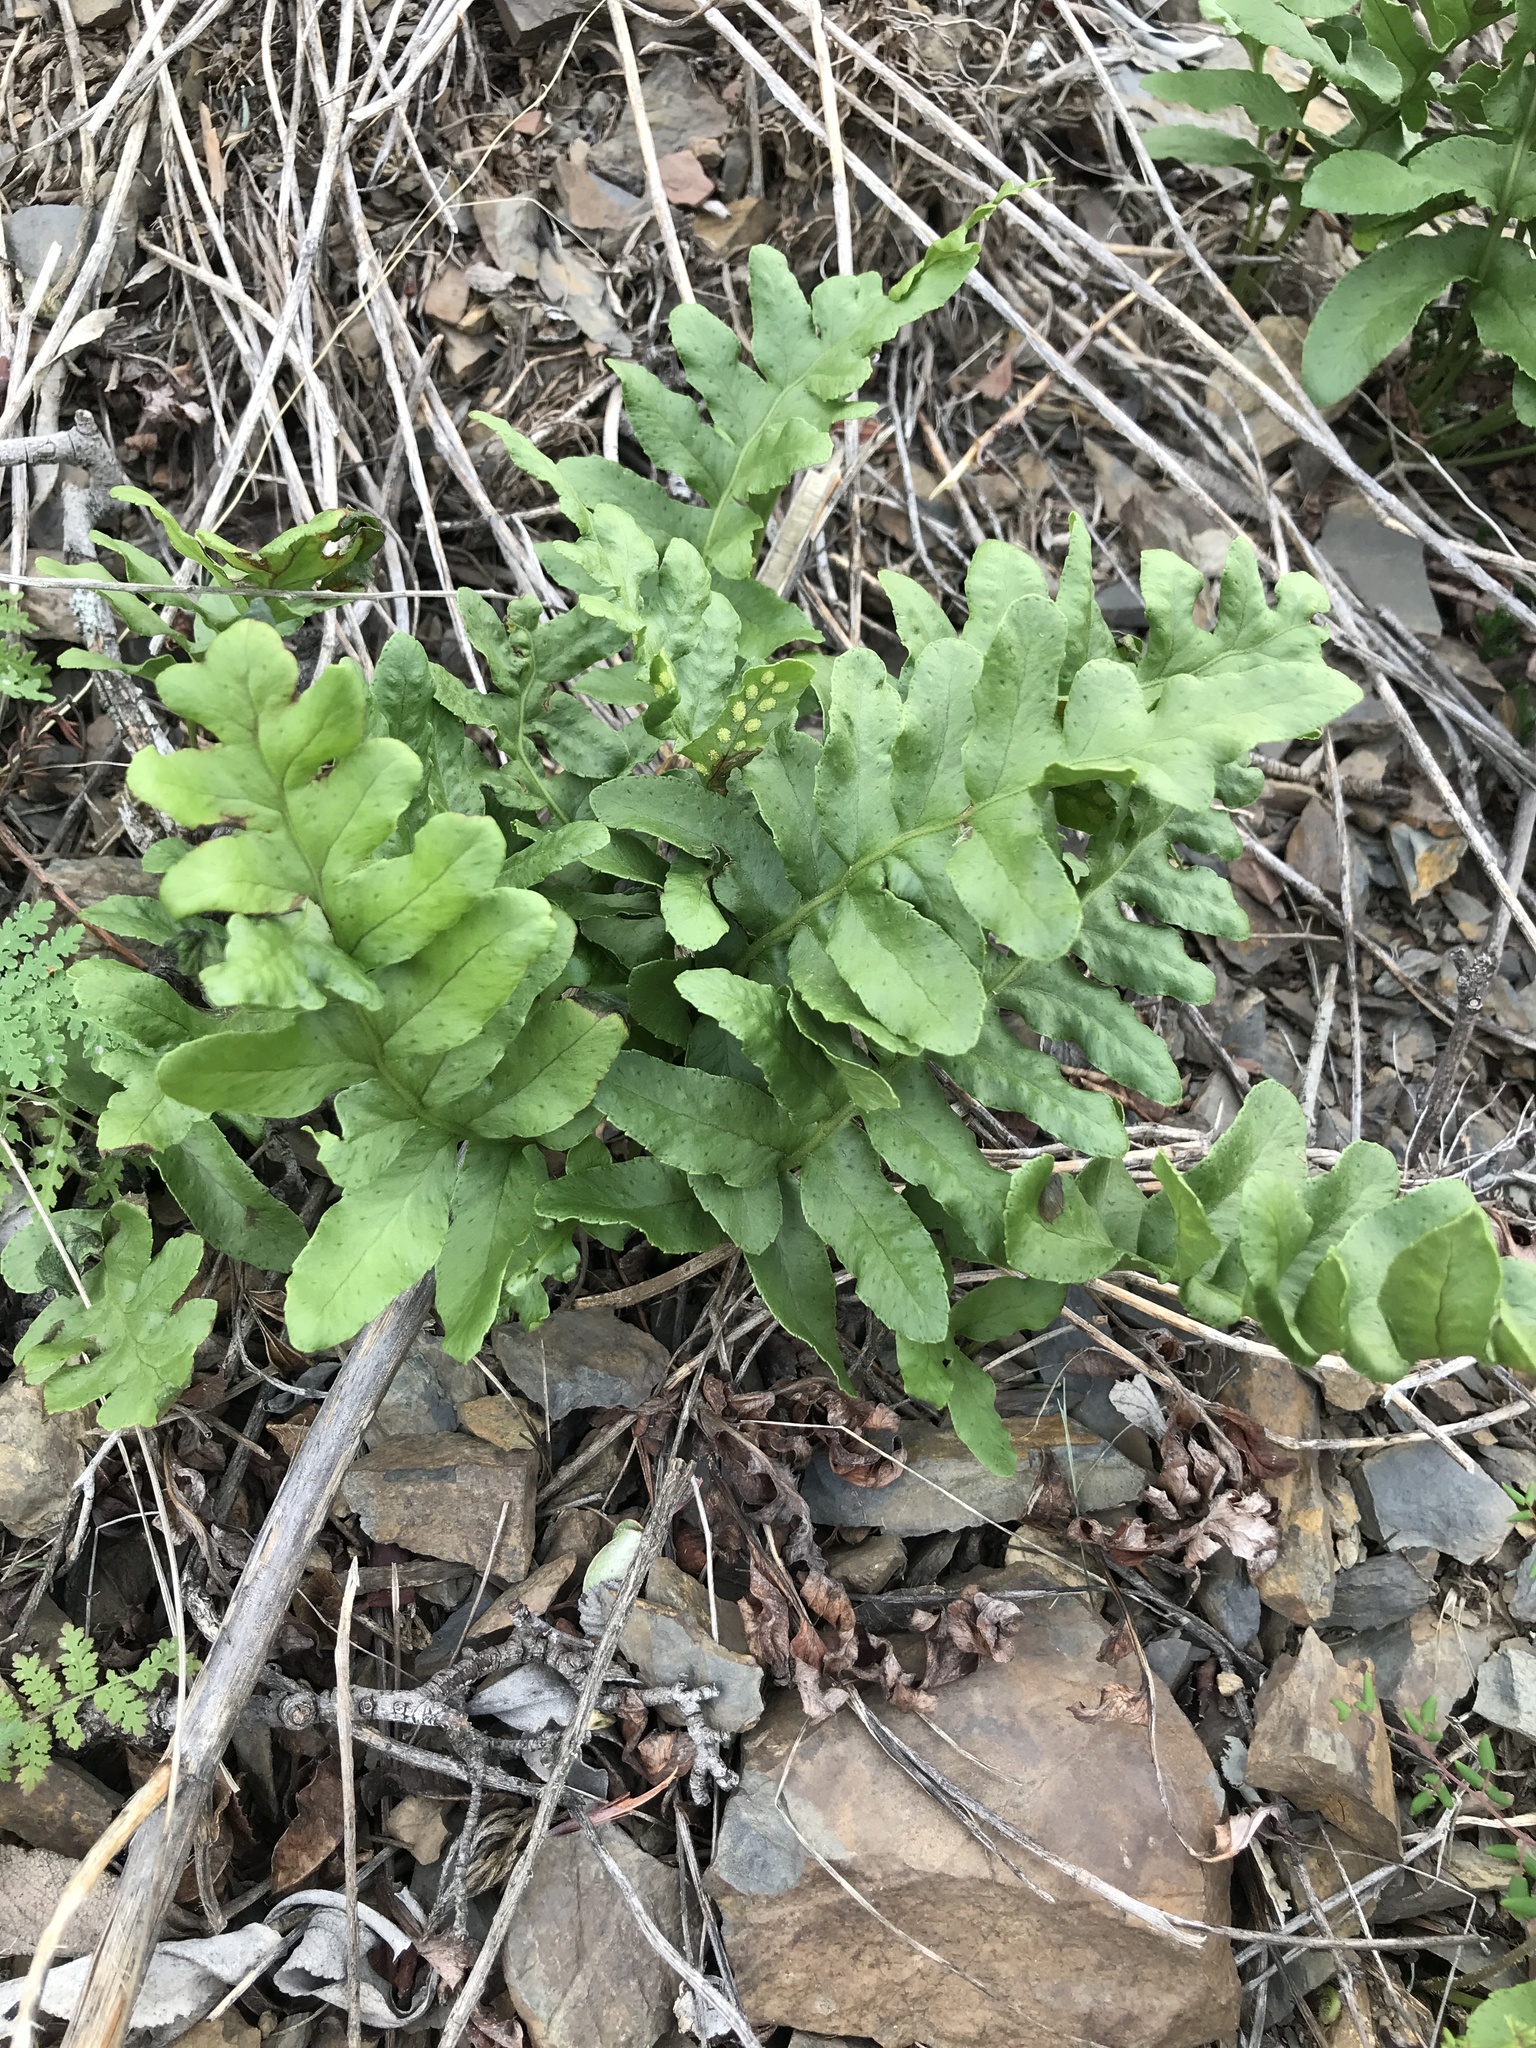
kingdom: Plantae
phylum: Tracheophyta
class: Polypodiopsida
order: Polypodiales
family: Polypodiaceae
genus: Polypodium
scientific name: Polypodium californicum
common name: California polypody
